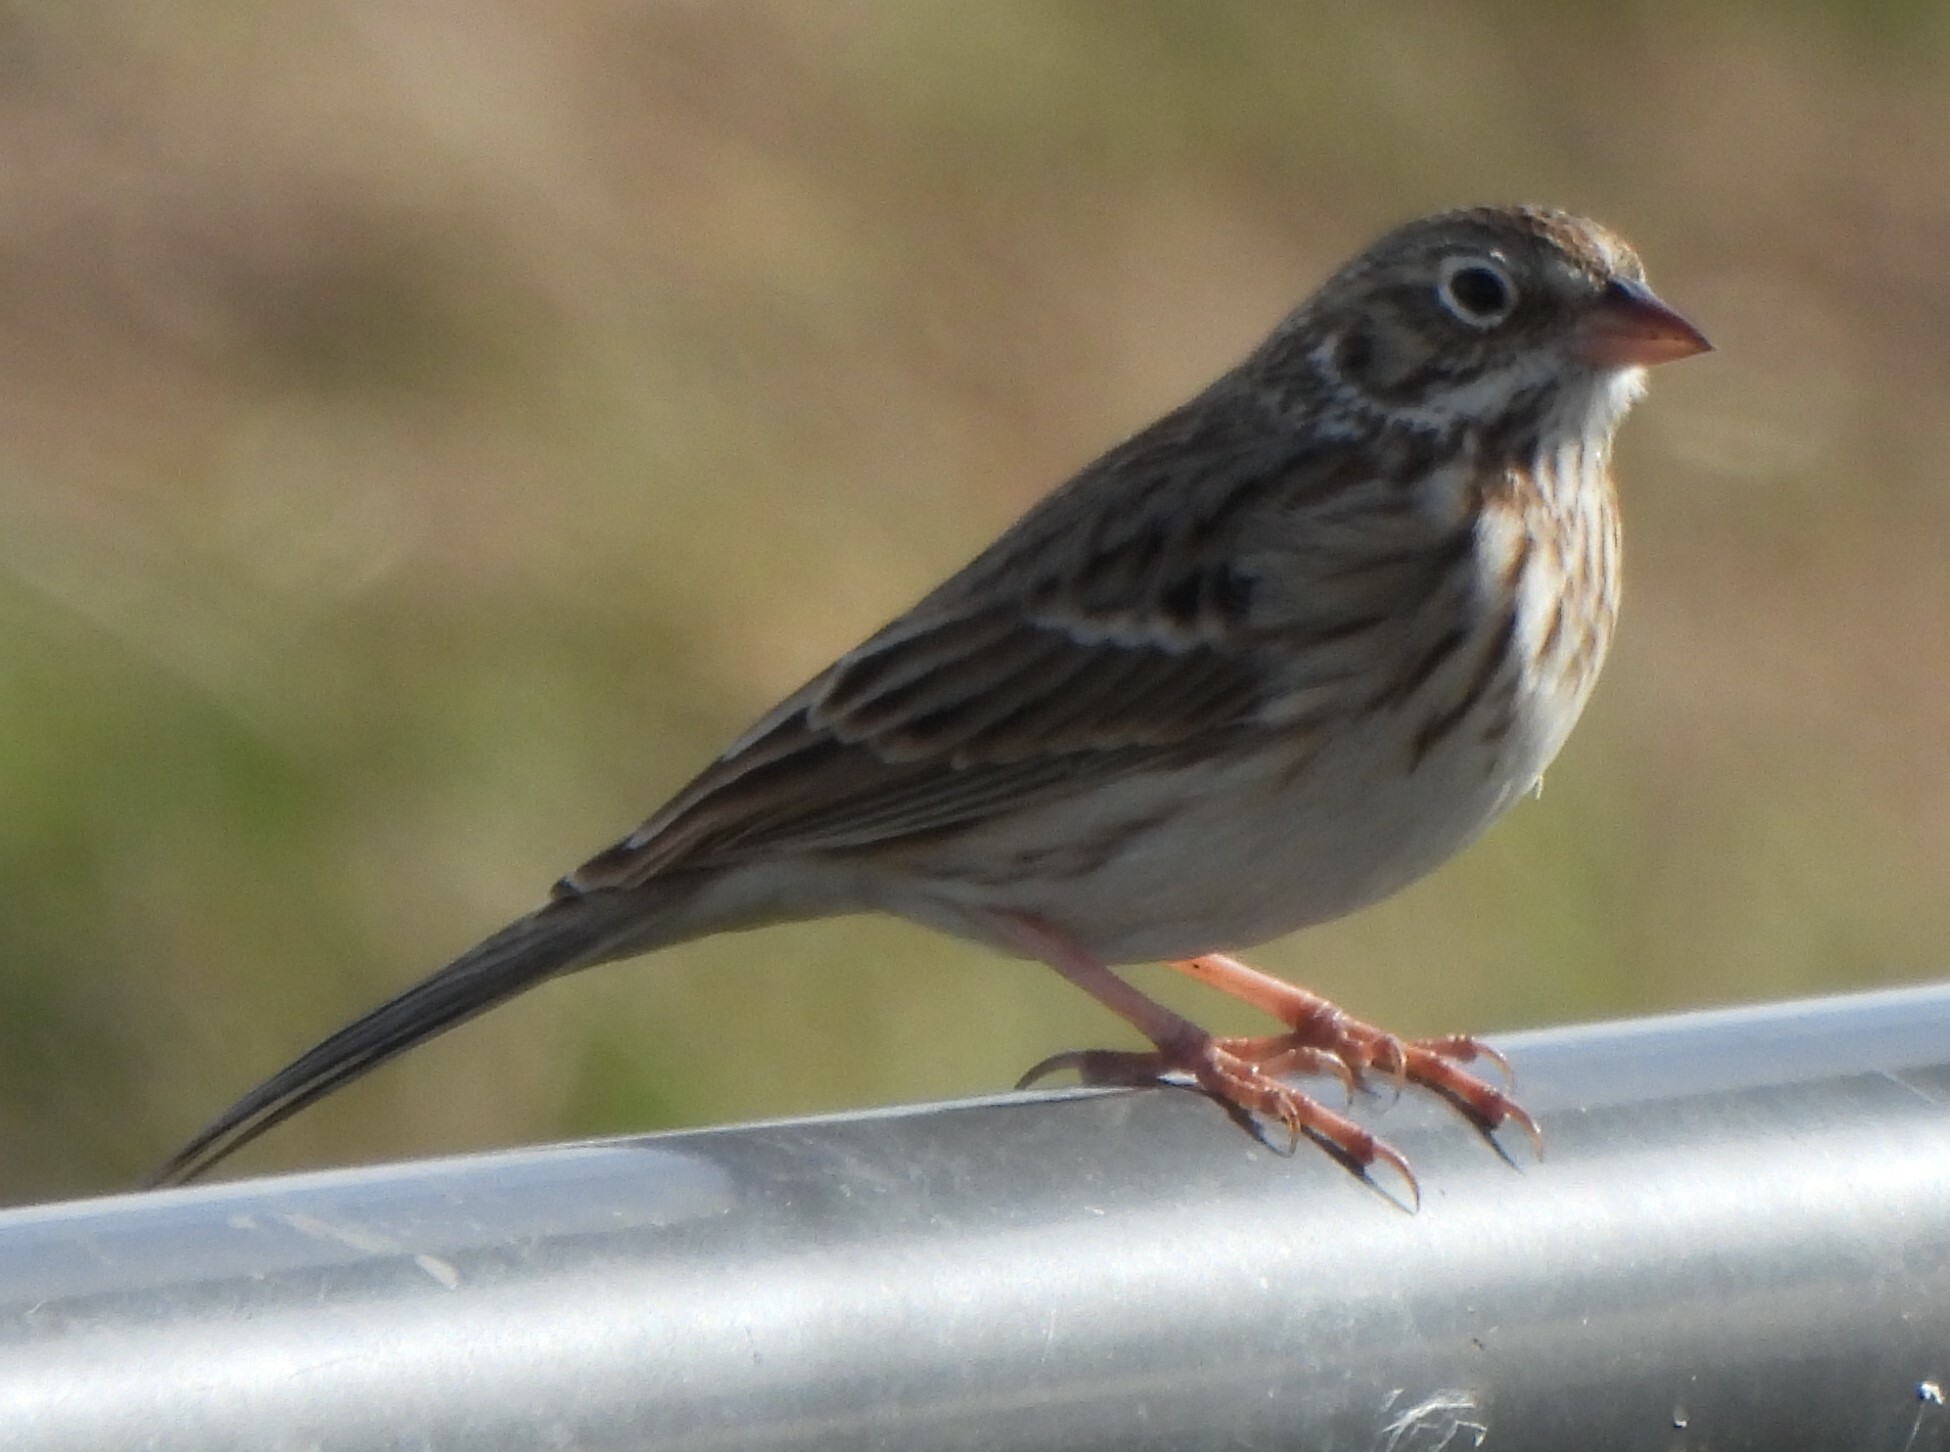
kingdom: Animalia
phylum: Chordata
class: Aves
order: Passeriformes
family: Passerellidae
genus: Pooecetes
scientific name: Pooecetes gramineus
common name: Vesper sparrow
